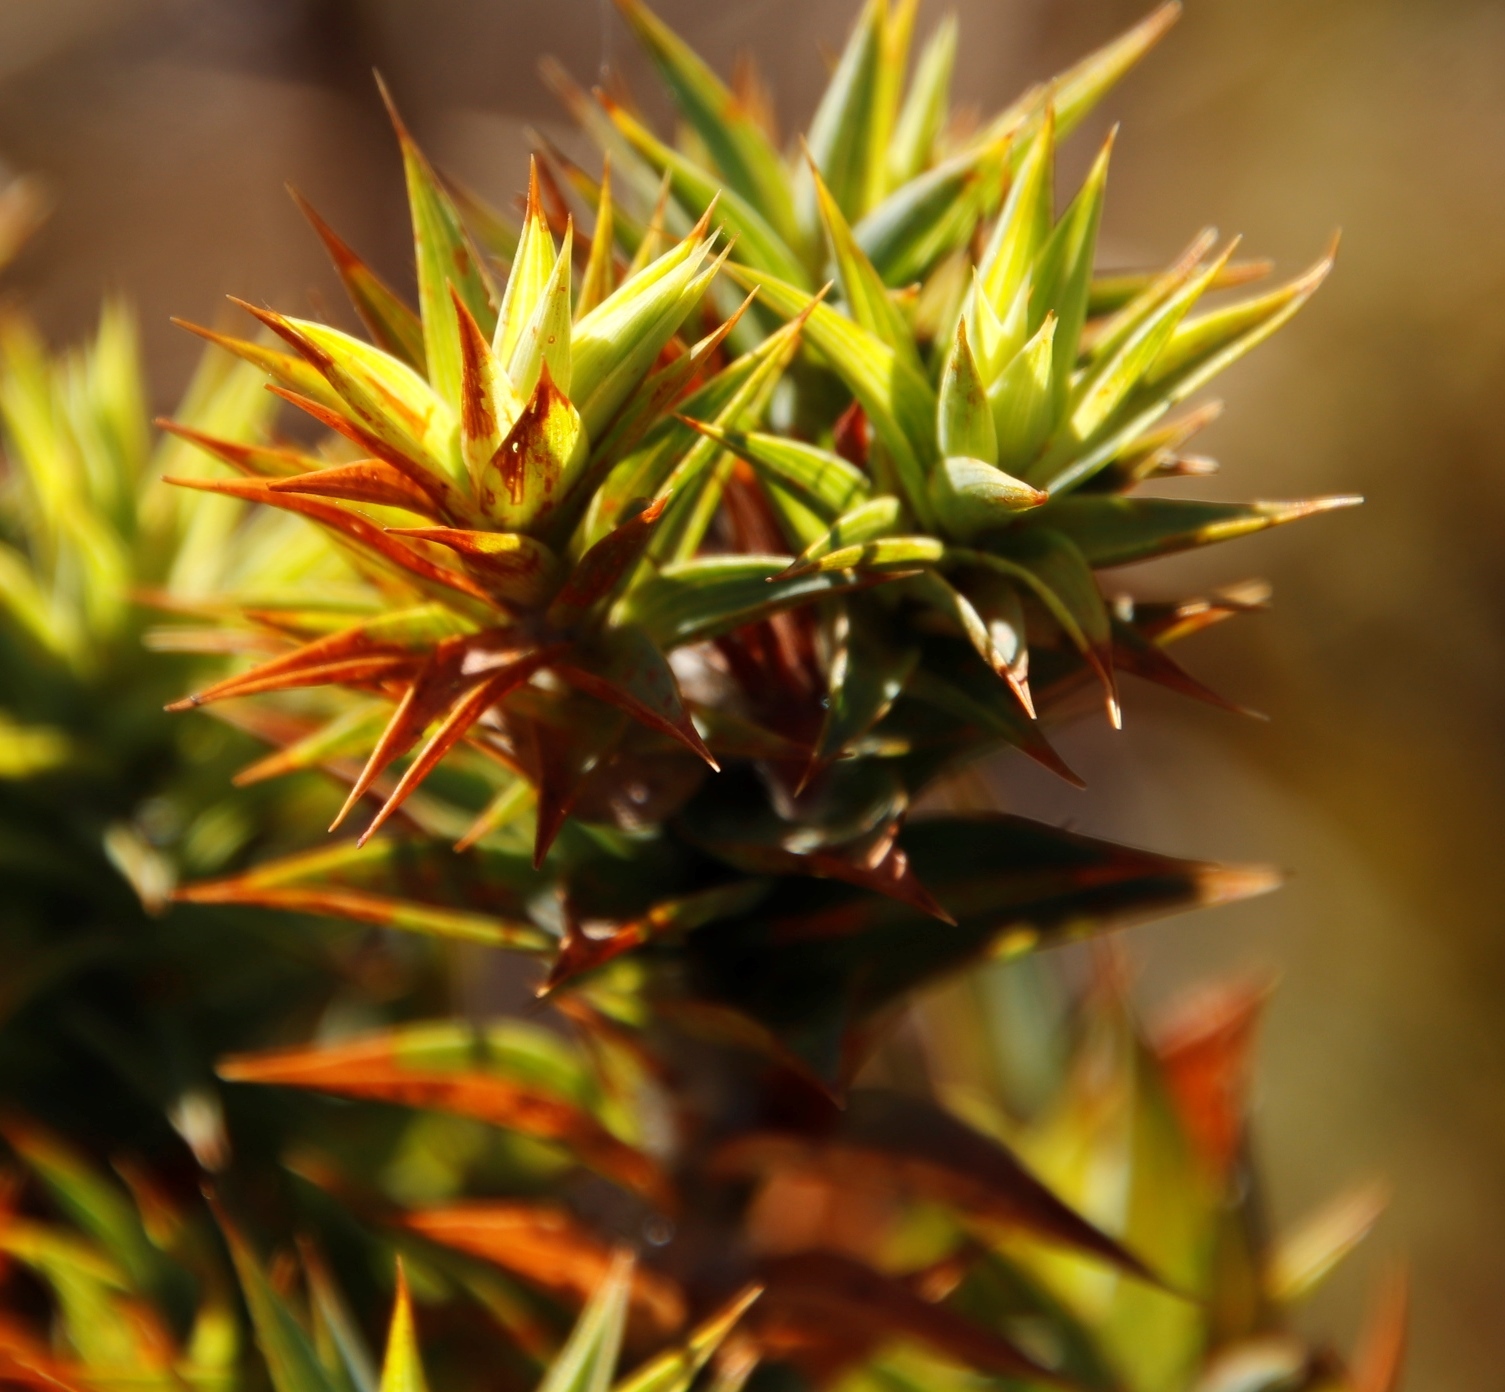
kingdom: Plantae
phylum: Tracheophyta
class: Magnoliopsida
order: Fabales
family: Fabaceae
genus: Aspalathus
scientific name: Aspalathus cordata
